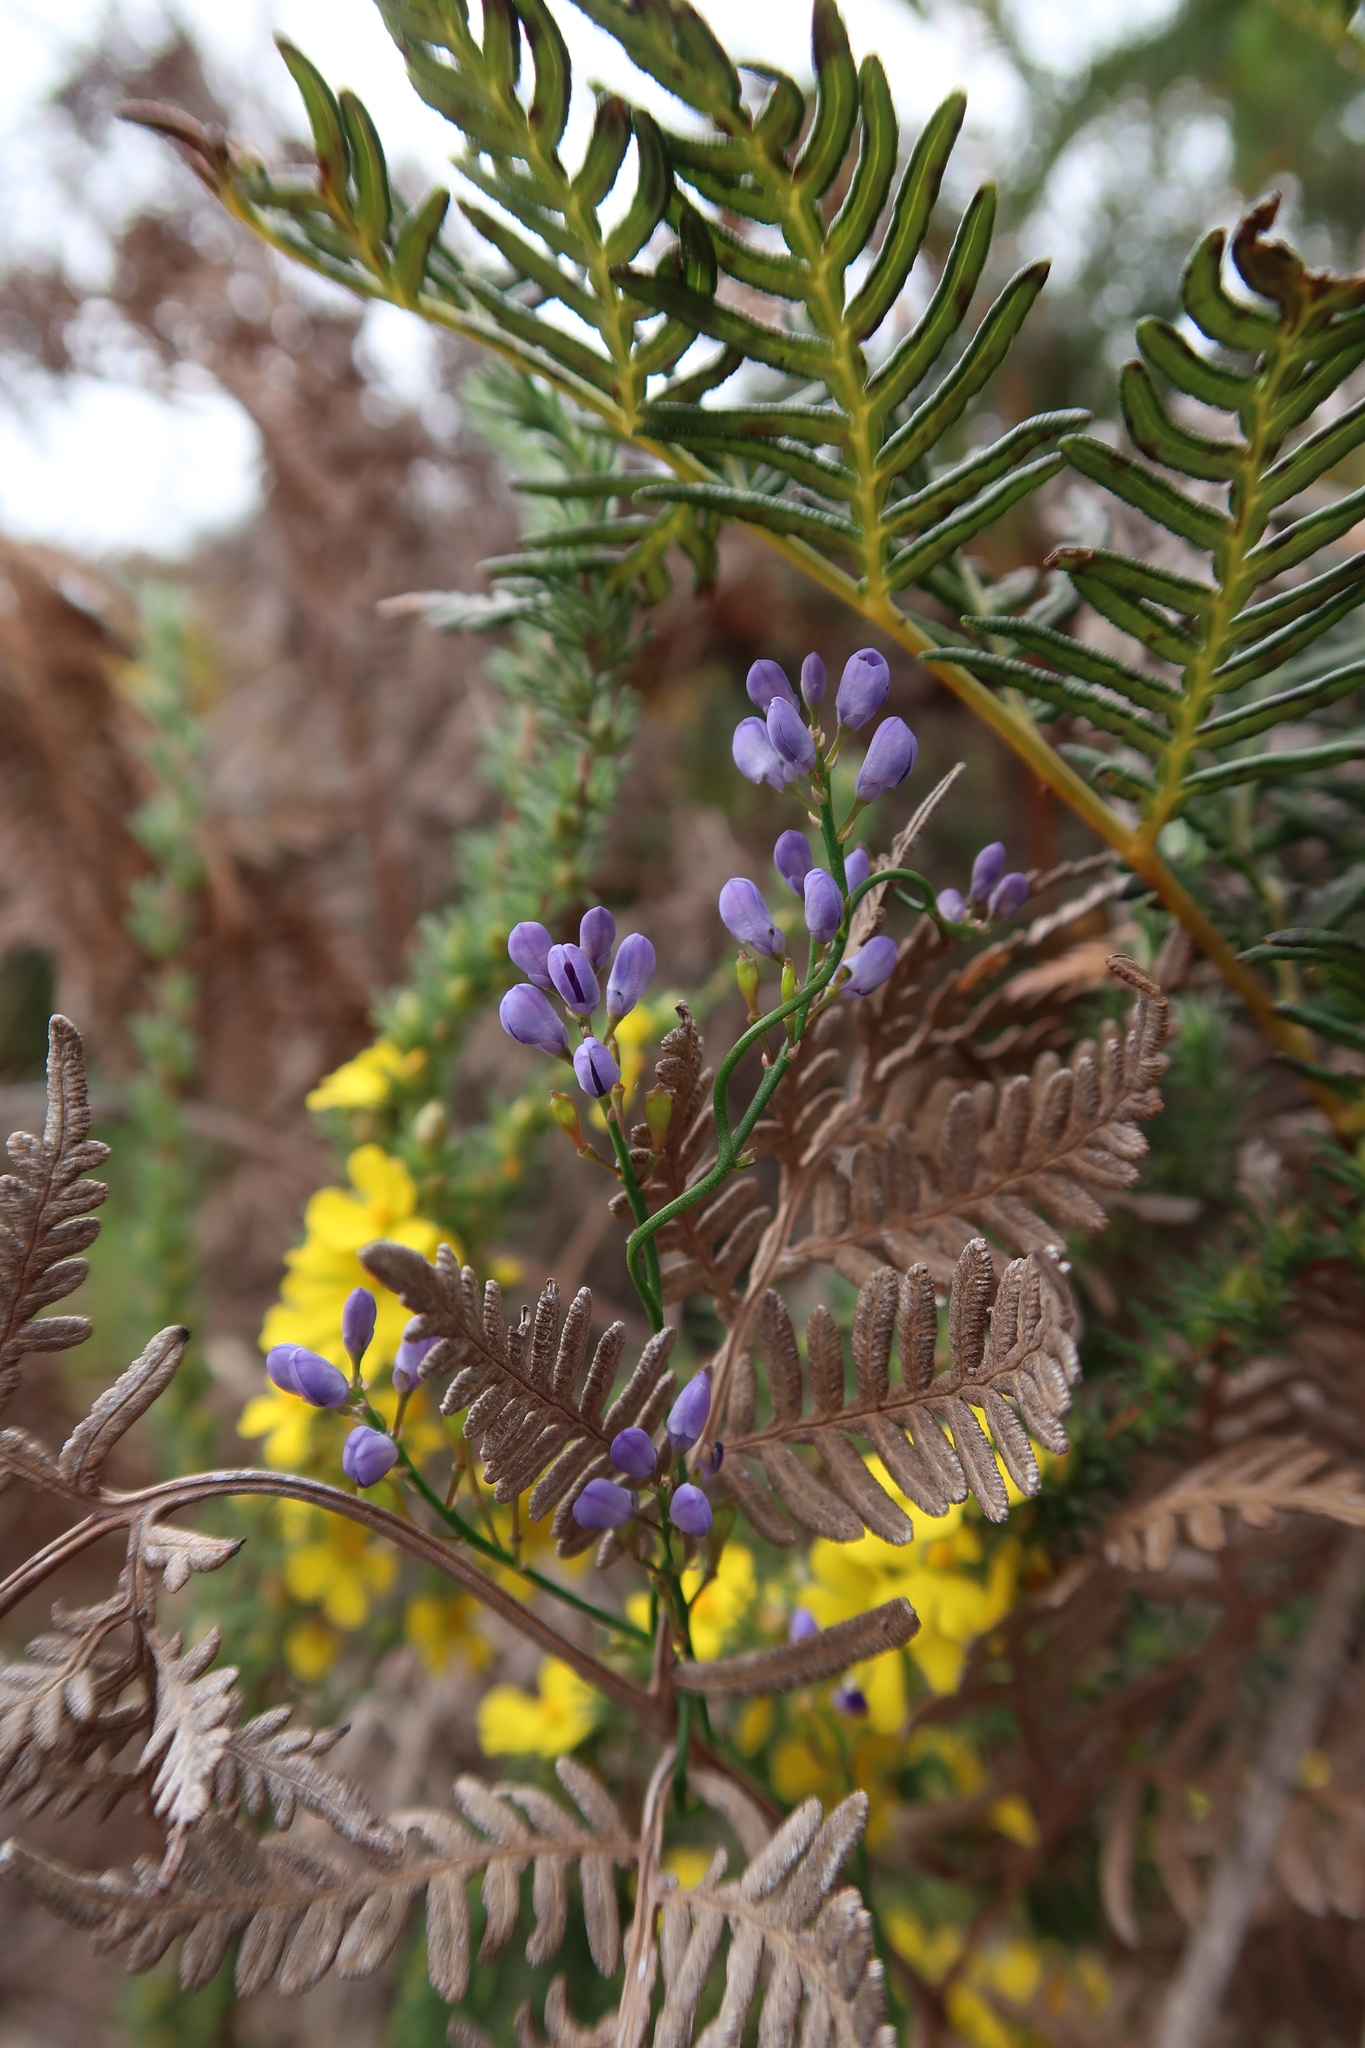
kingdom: Plantae
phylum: Tracheophyta
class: Magnoliopsida
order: Fabales
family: Polygalaceae
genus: Comesperma
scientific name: Comesperma volubile
